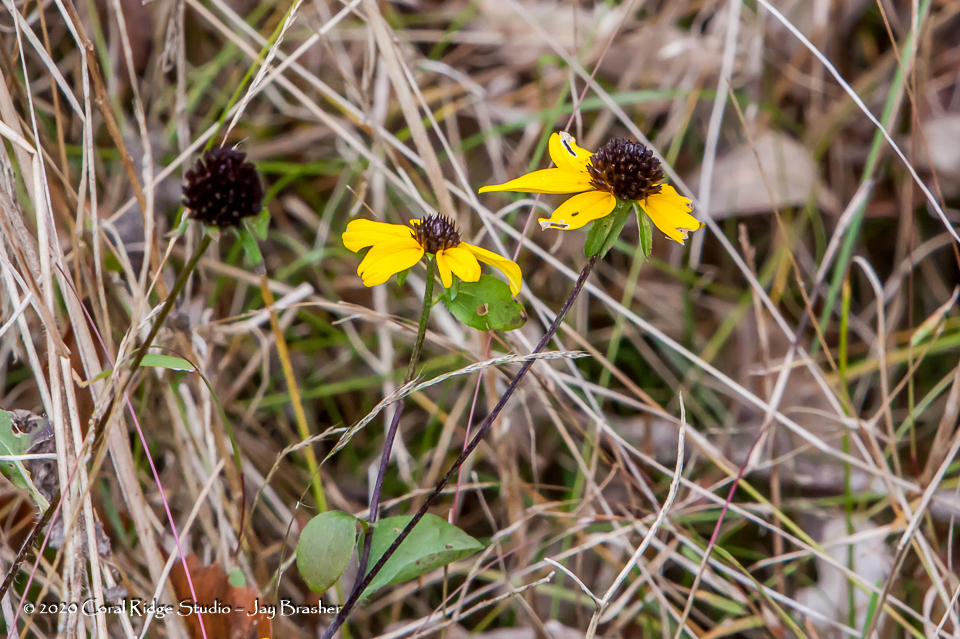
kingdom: Plantae
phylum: Tracheophyta
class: Magnoliopsida
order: Asterales
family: Asteraceae
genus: Rudbeckia
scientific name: Rudbeckia triloba
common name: Thin-leaved coneflower
